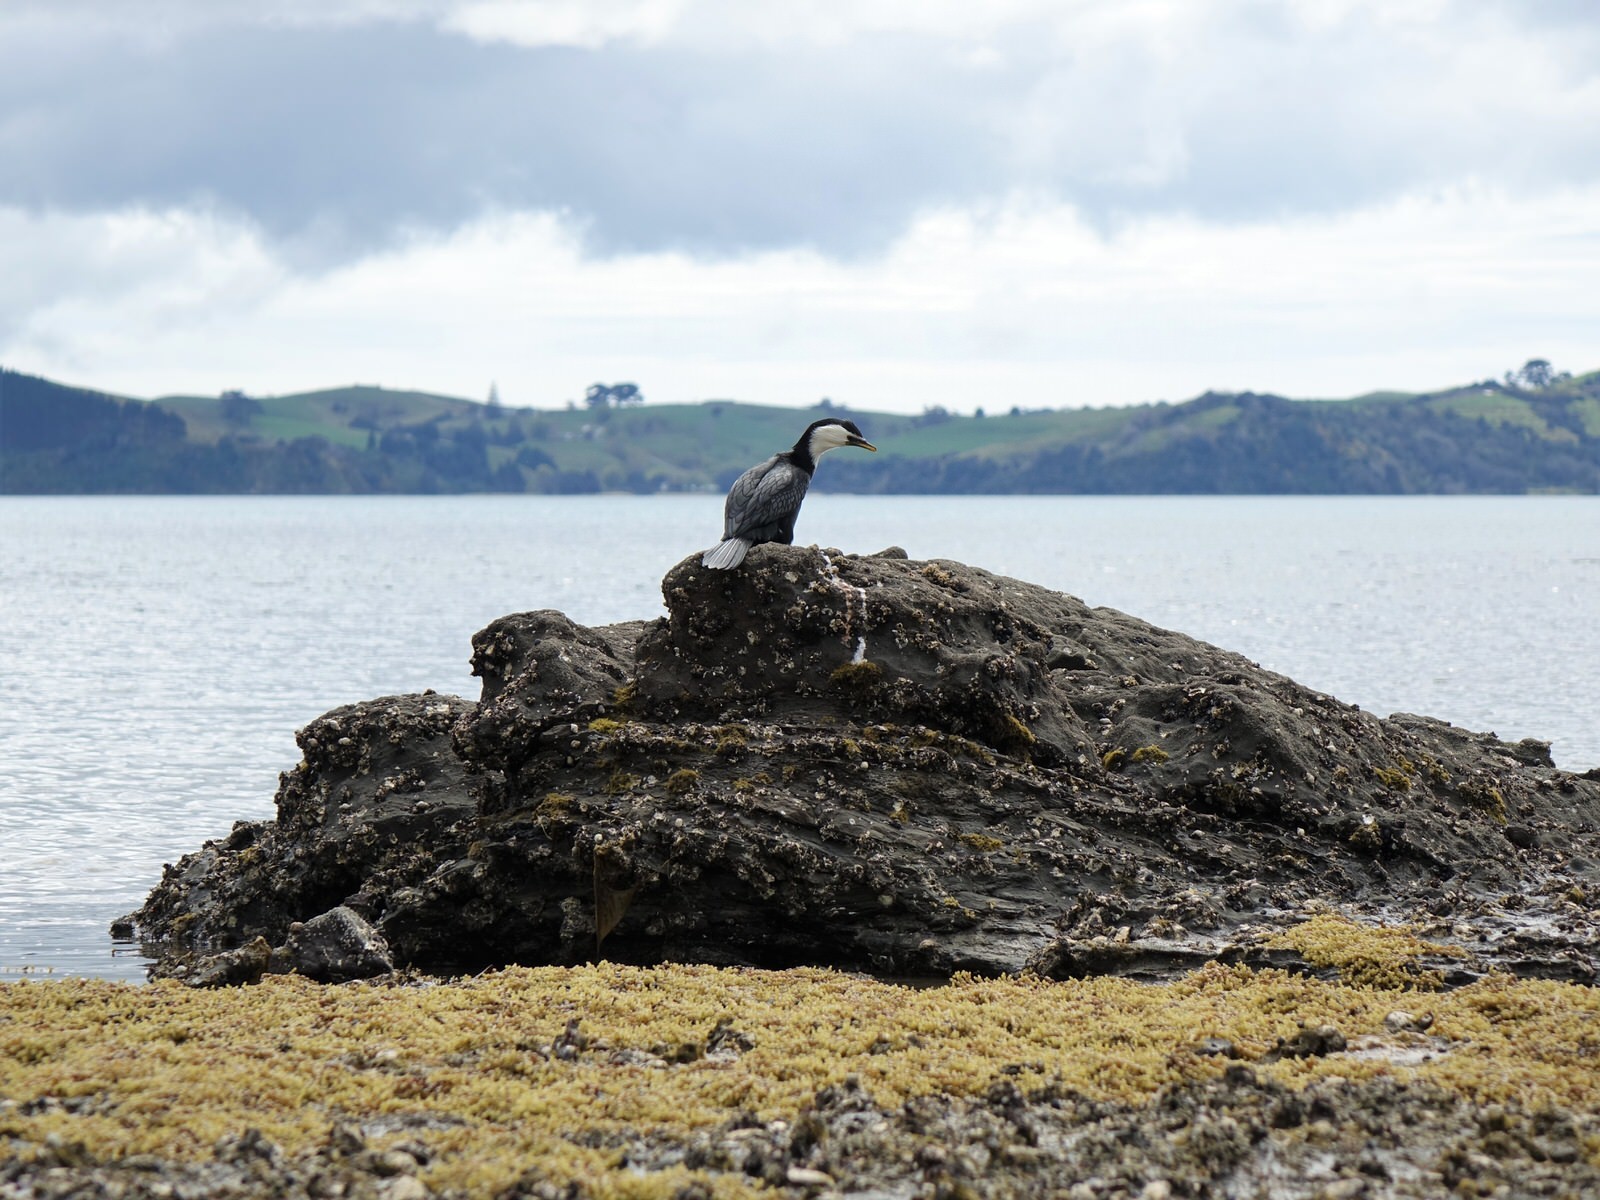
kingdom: Animalia
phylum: Chordata
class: Aves
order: Suliformes
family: Phalacrocoracidae
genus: Microcarbo
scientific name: Microcarbo melanoleucos
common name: Little pied cormorant
